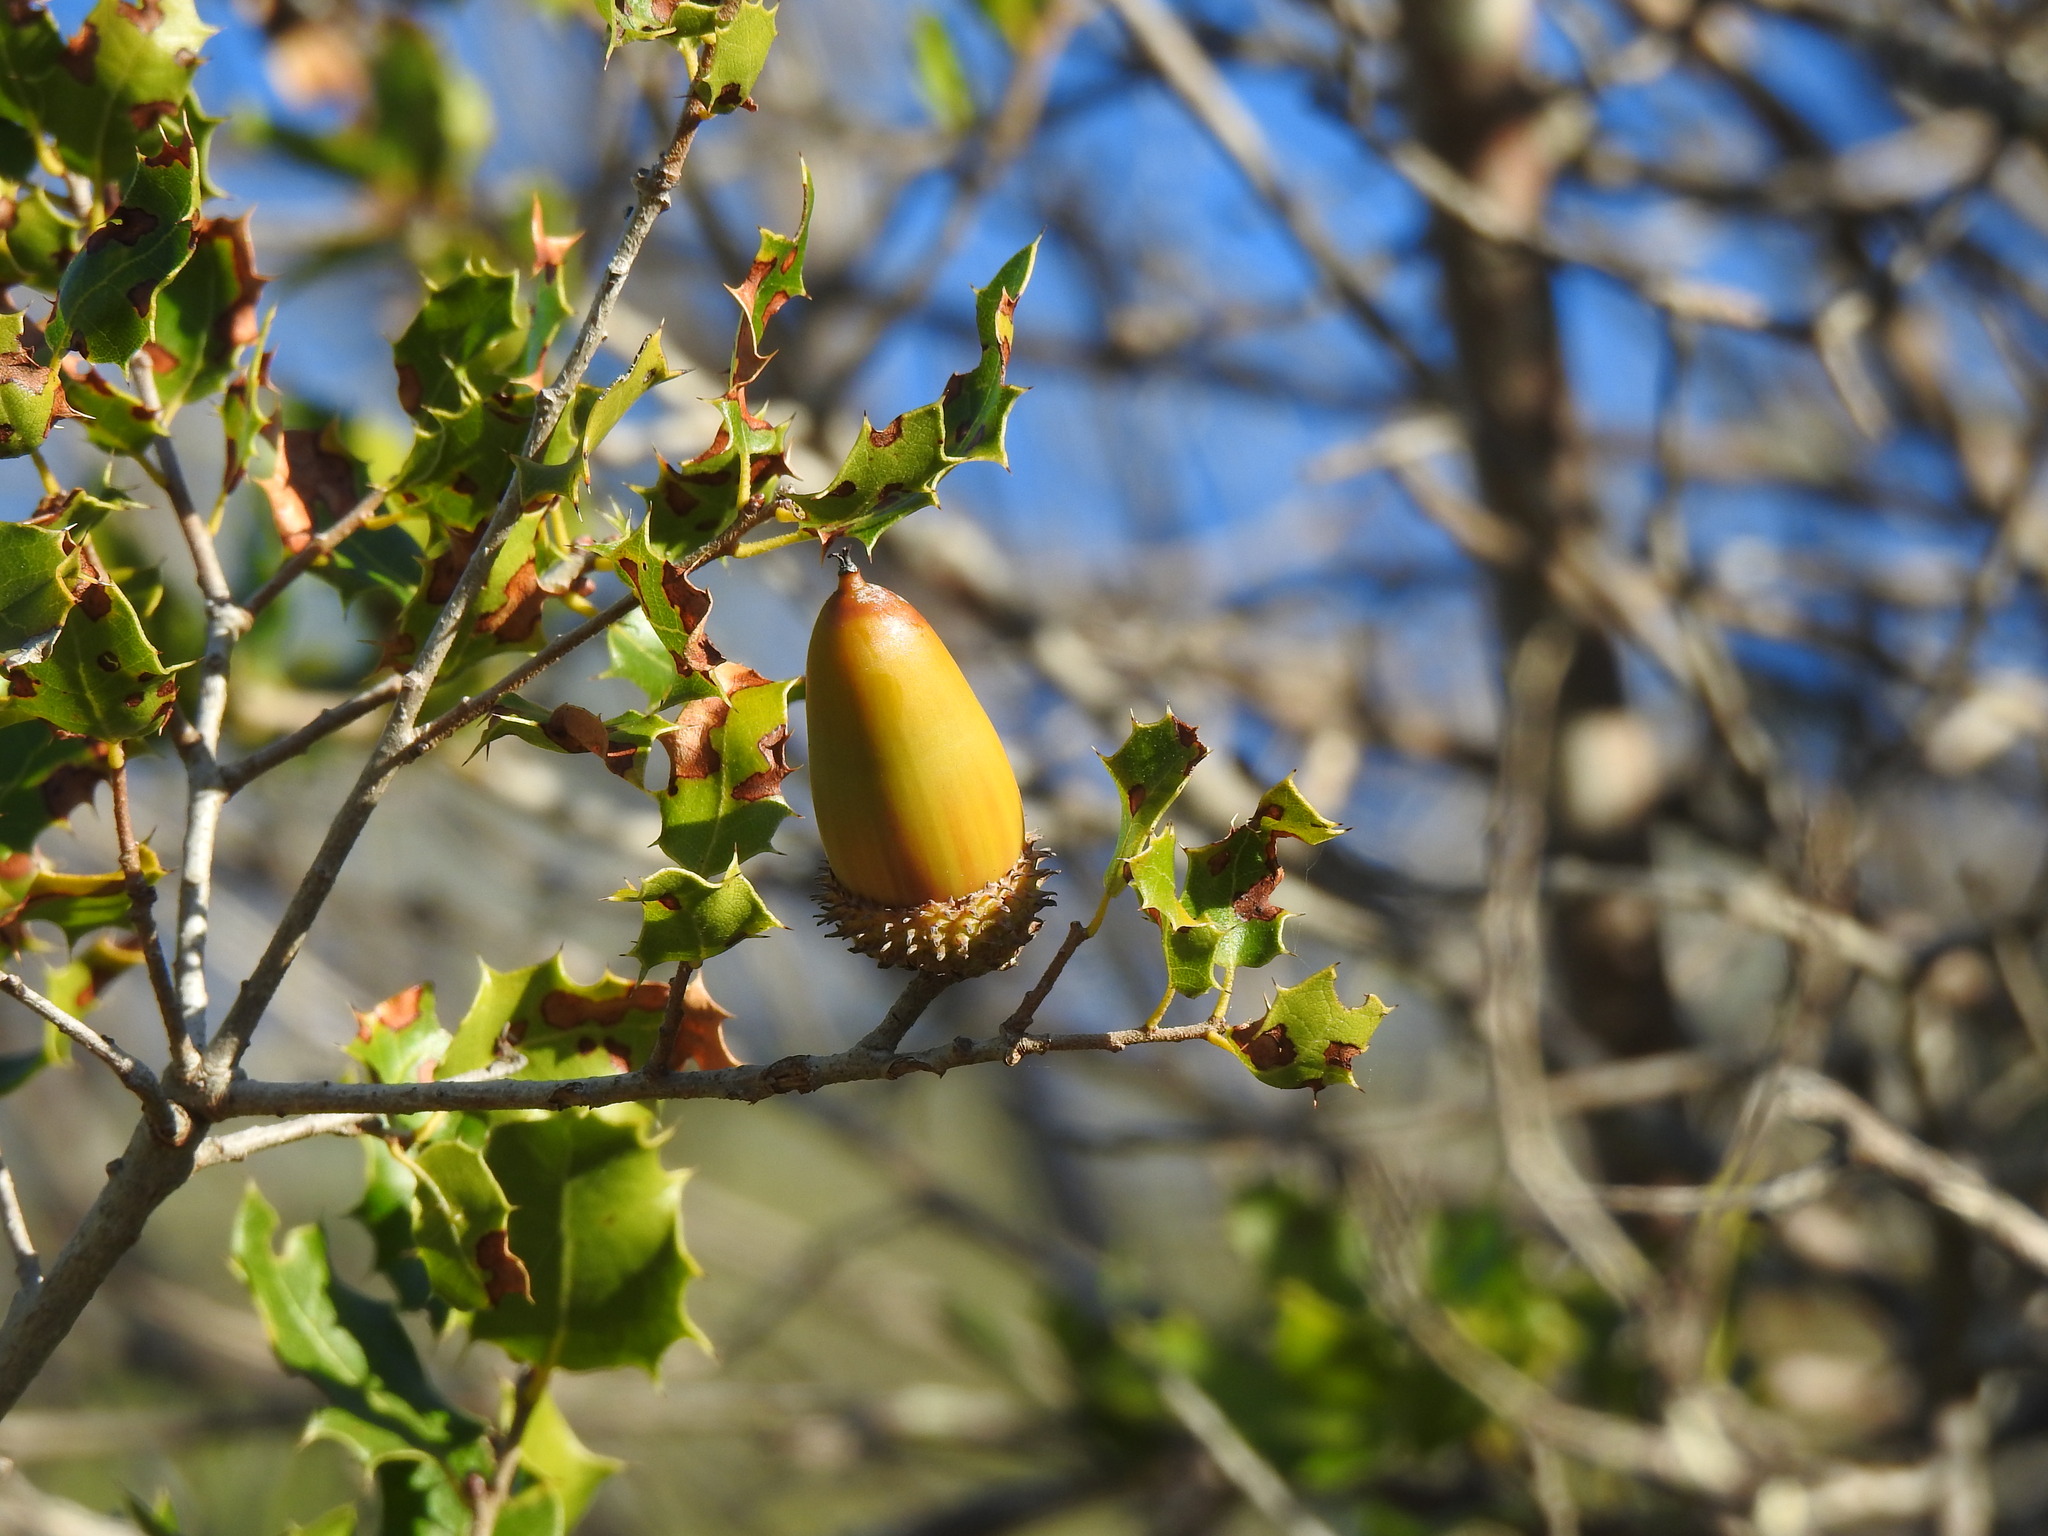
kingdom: Plantae
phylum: Tracheophyta
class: Magnoliopsida
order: Fagales
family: Fagaceae
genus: Quercus
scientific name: Quercus coccifera
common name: Kermes oak
